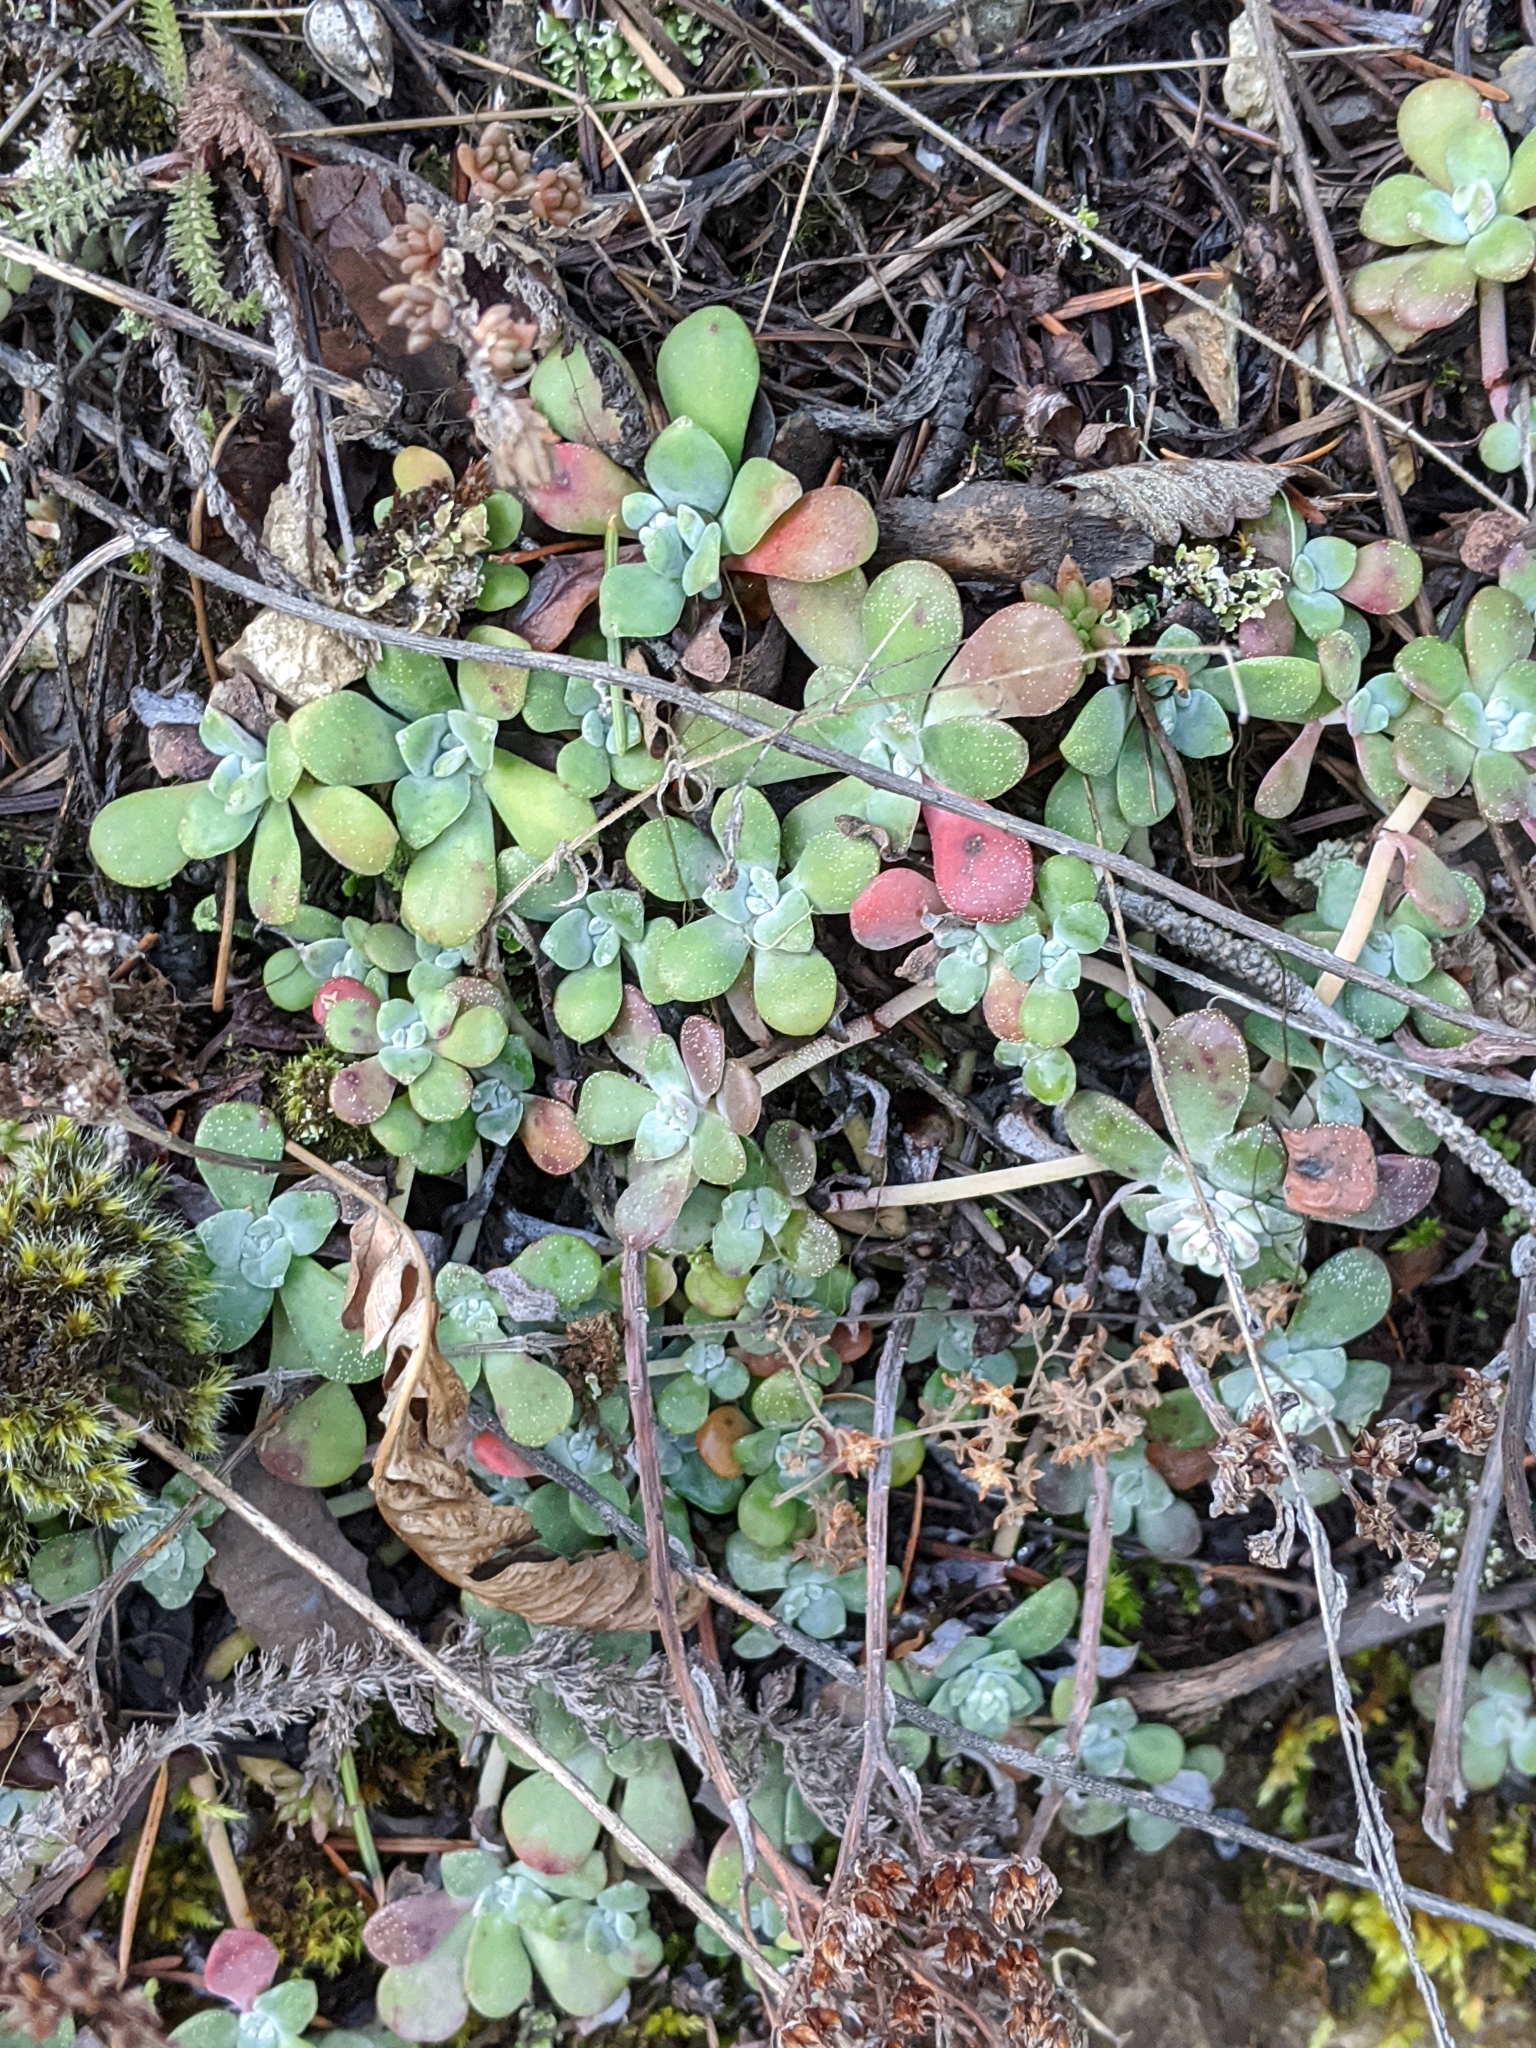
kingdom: Plantae
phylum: Tracheophyta
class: Magnoliopsida
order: Saxifragales
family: Crassulaceae
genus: Sedum
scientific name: Sedum spathulifolium
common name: Colorado stonecrop
